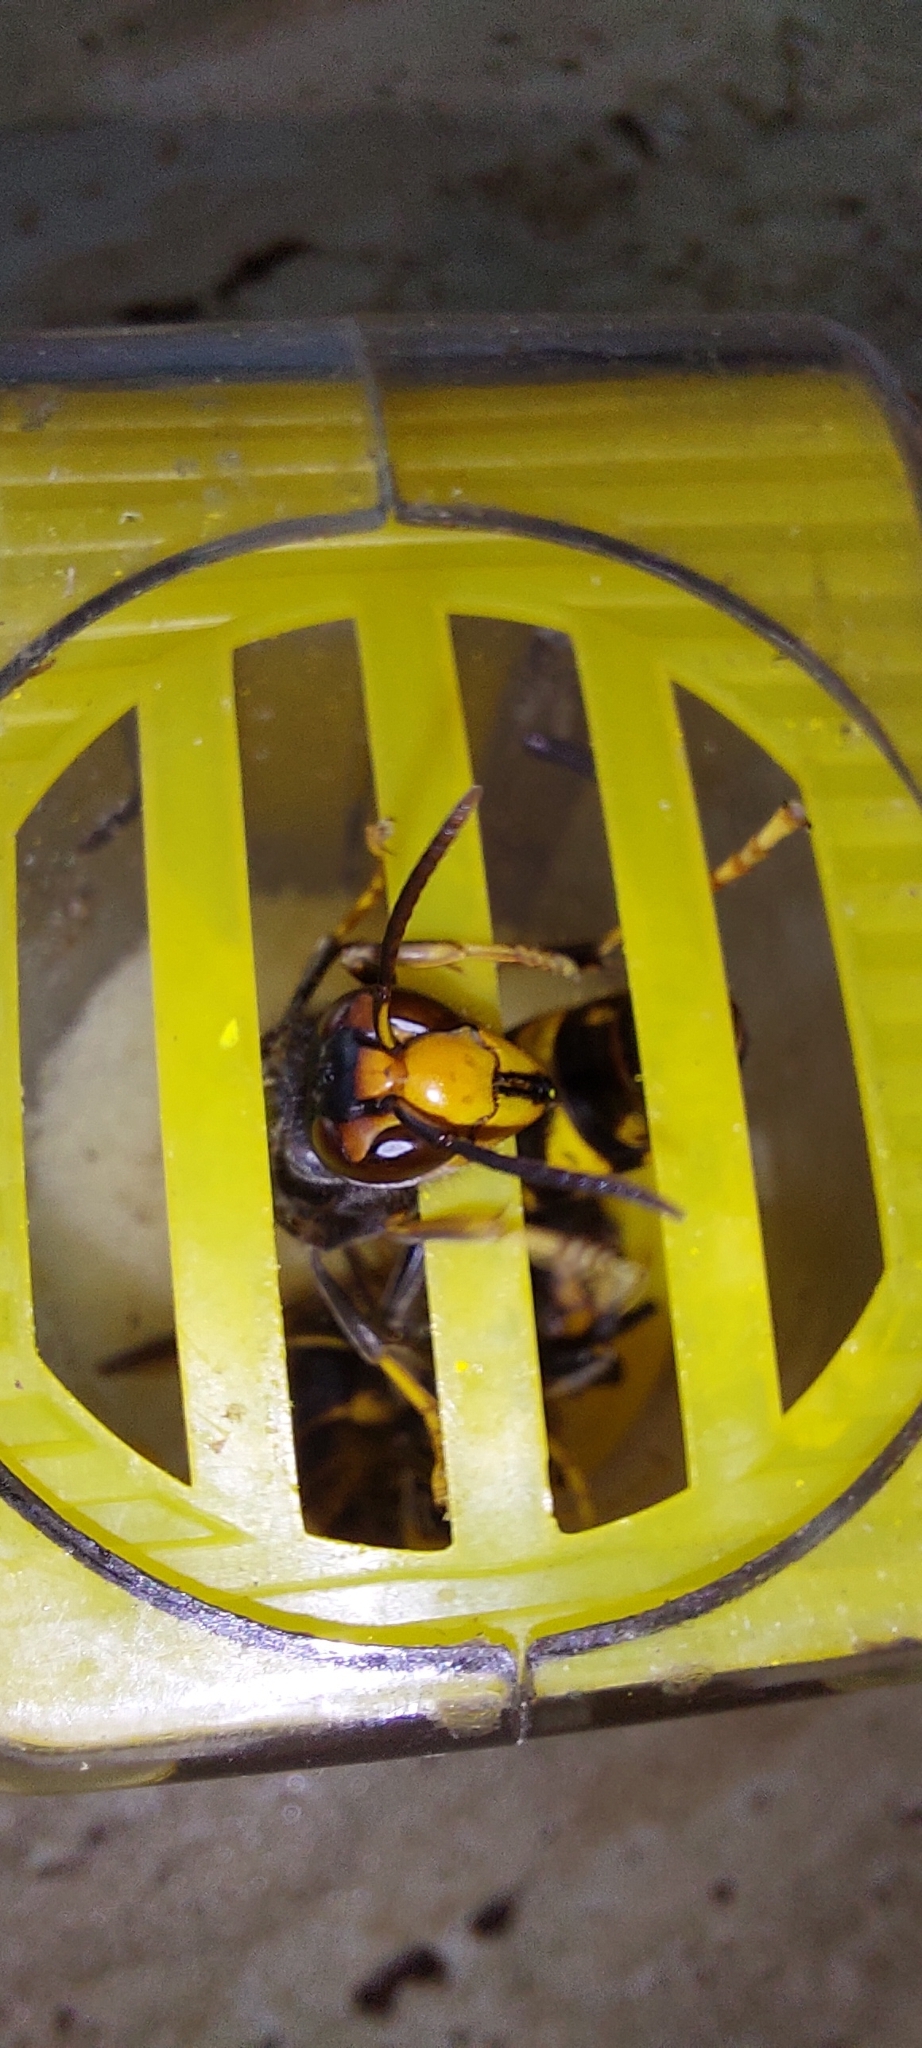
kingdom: Animalia
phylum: Arthropoda
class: Insecta
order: Hymenoptera
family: Vespidae
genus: Vespa
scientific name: Vespa velutina
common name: Asian hornet
